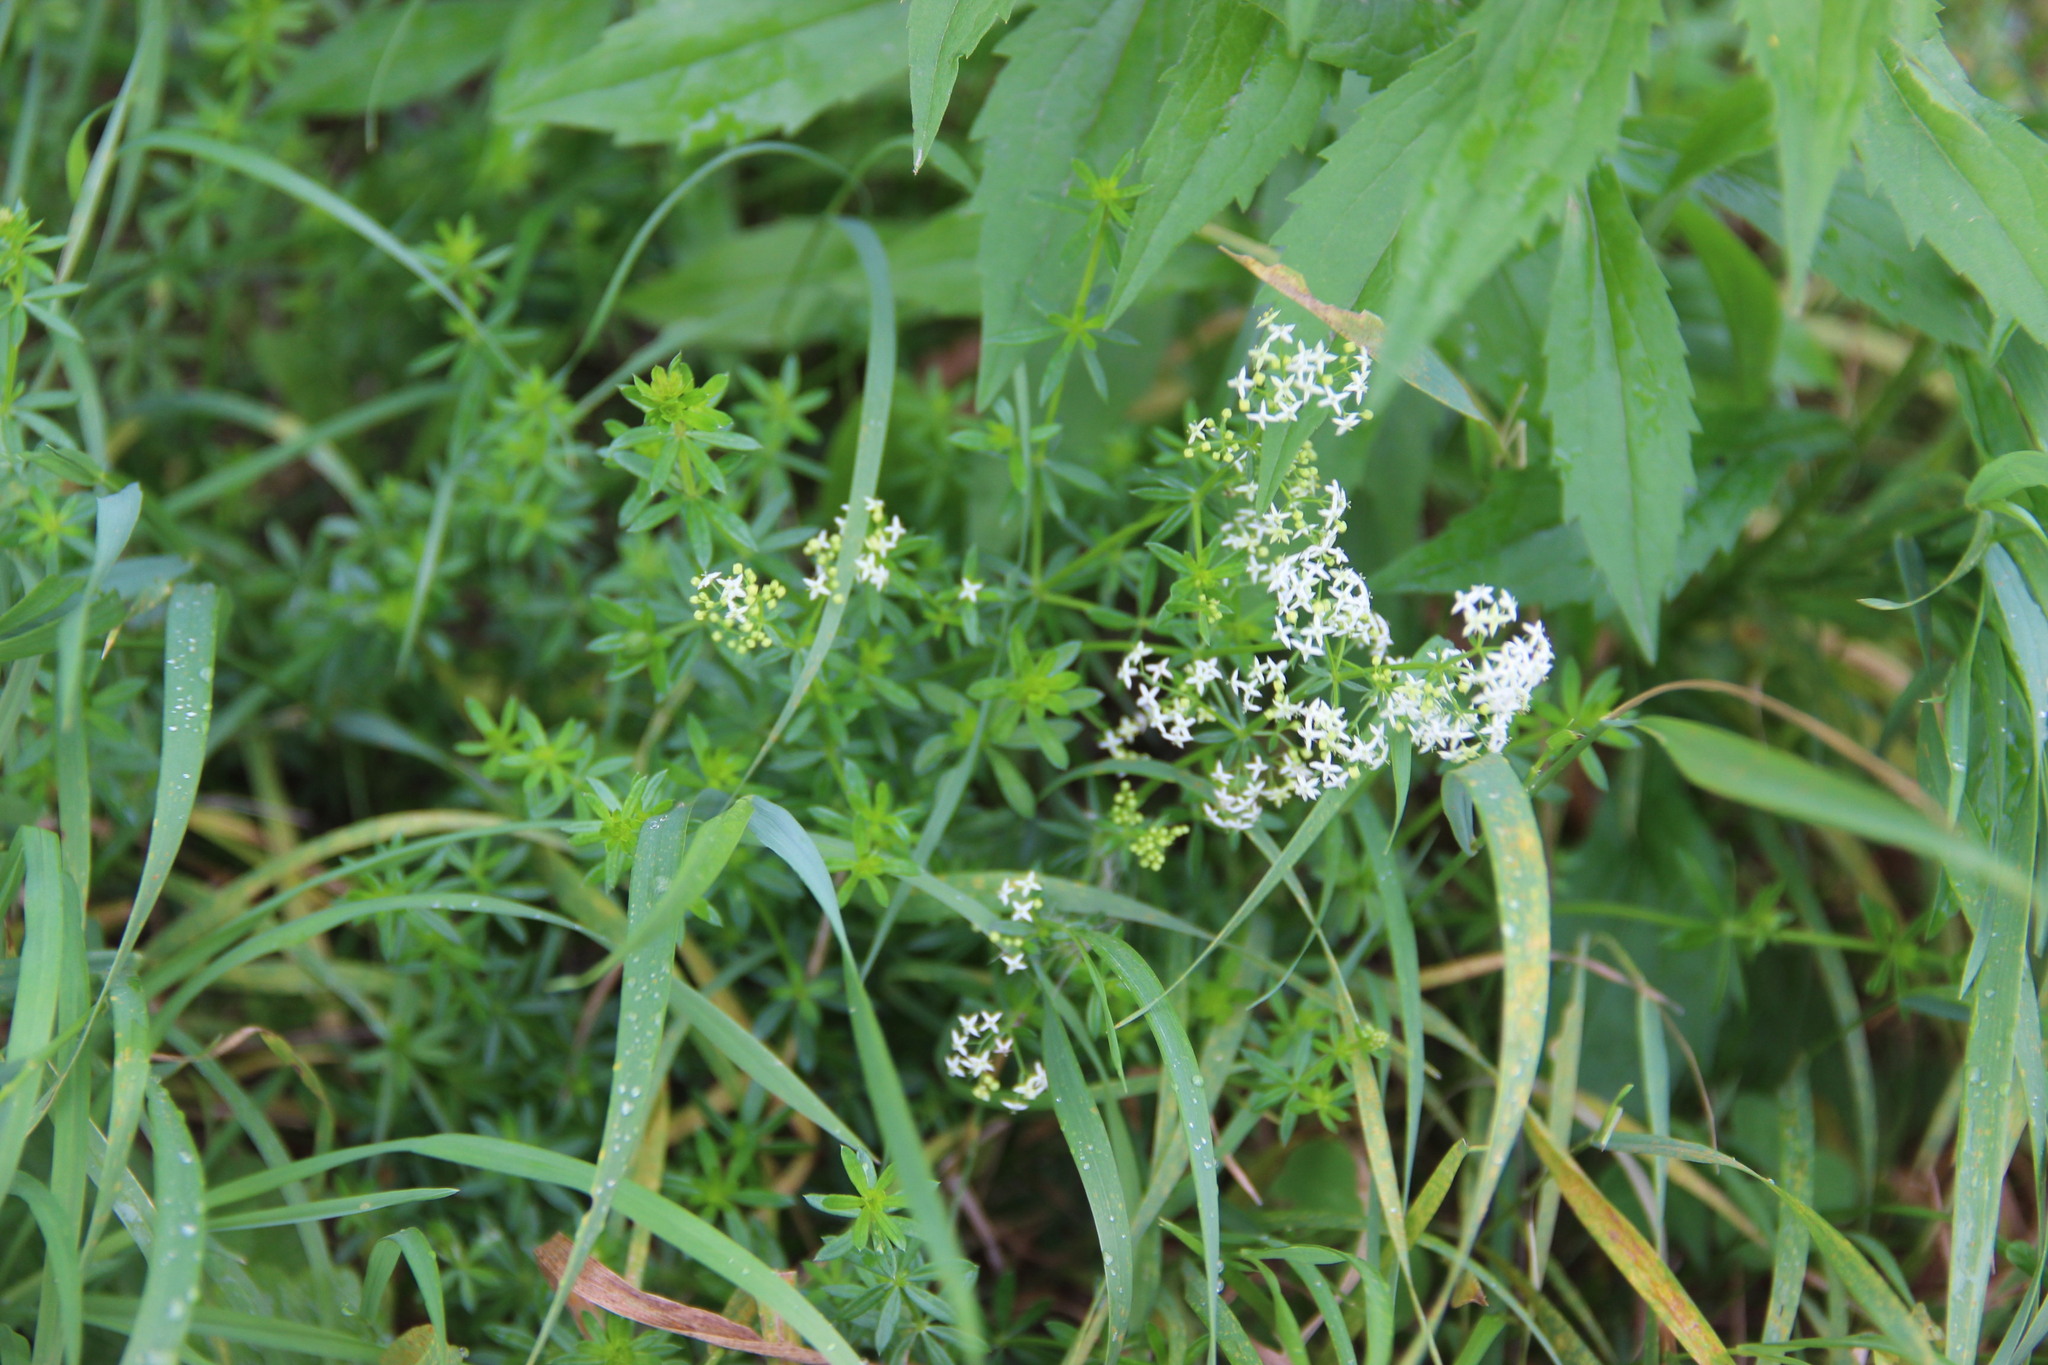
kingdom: Plantae
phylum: Tracheophyta
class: Magnoliopsida
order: Gentianales
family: Rubiaceae
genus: Galium
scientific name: Galium mollugo
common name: Hedge bedstraw
